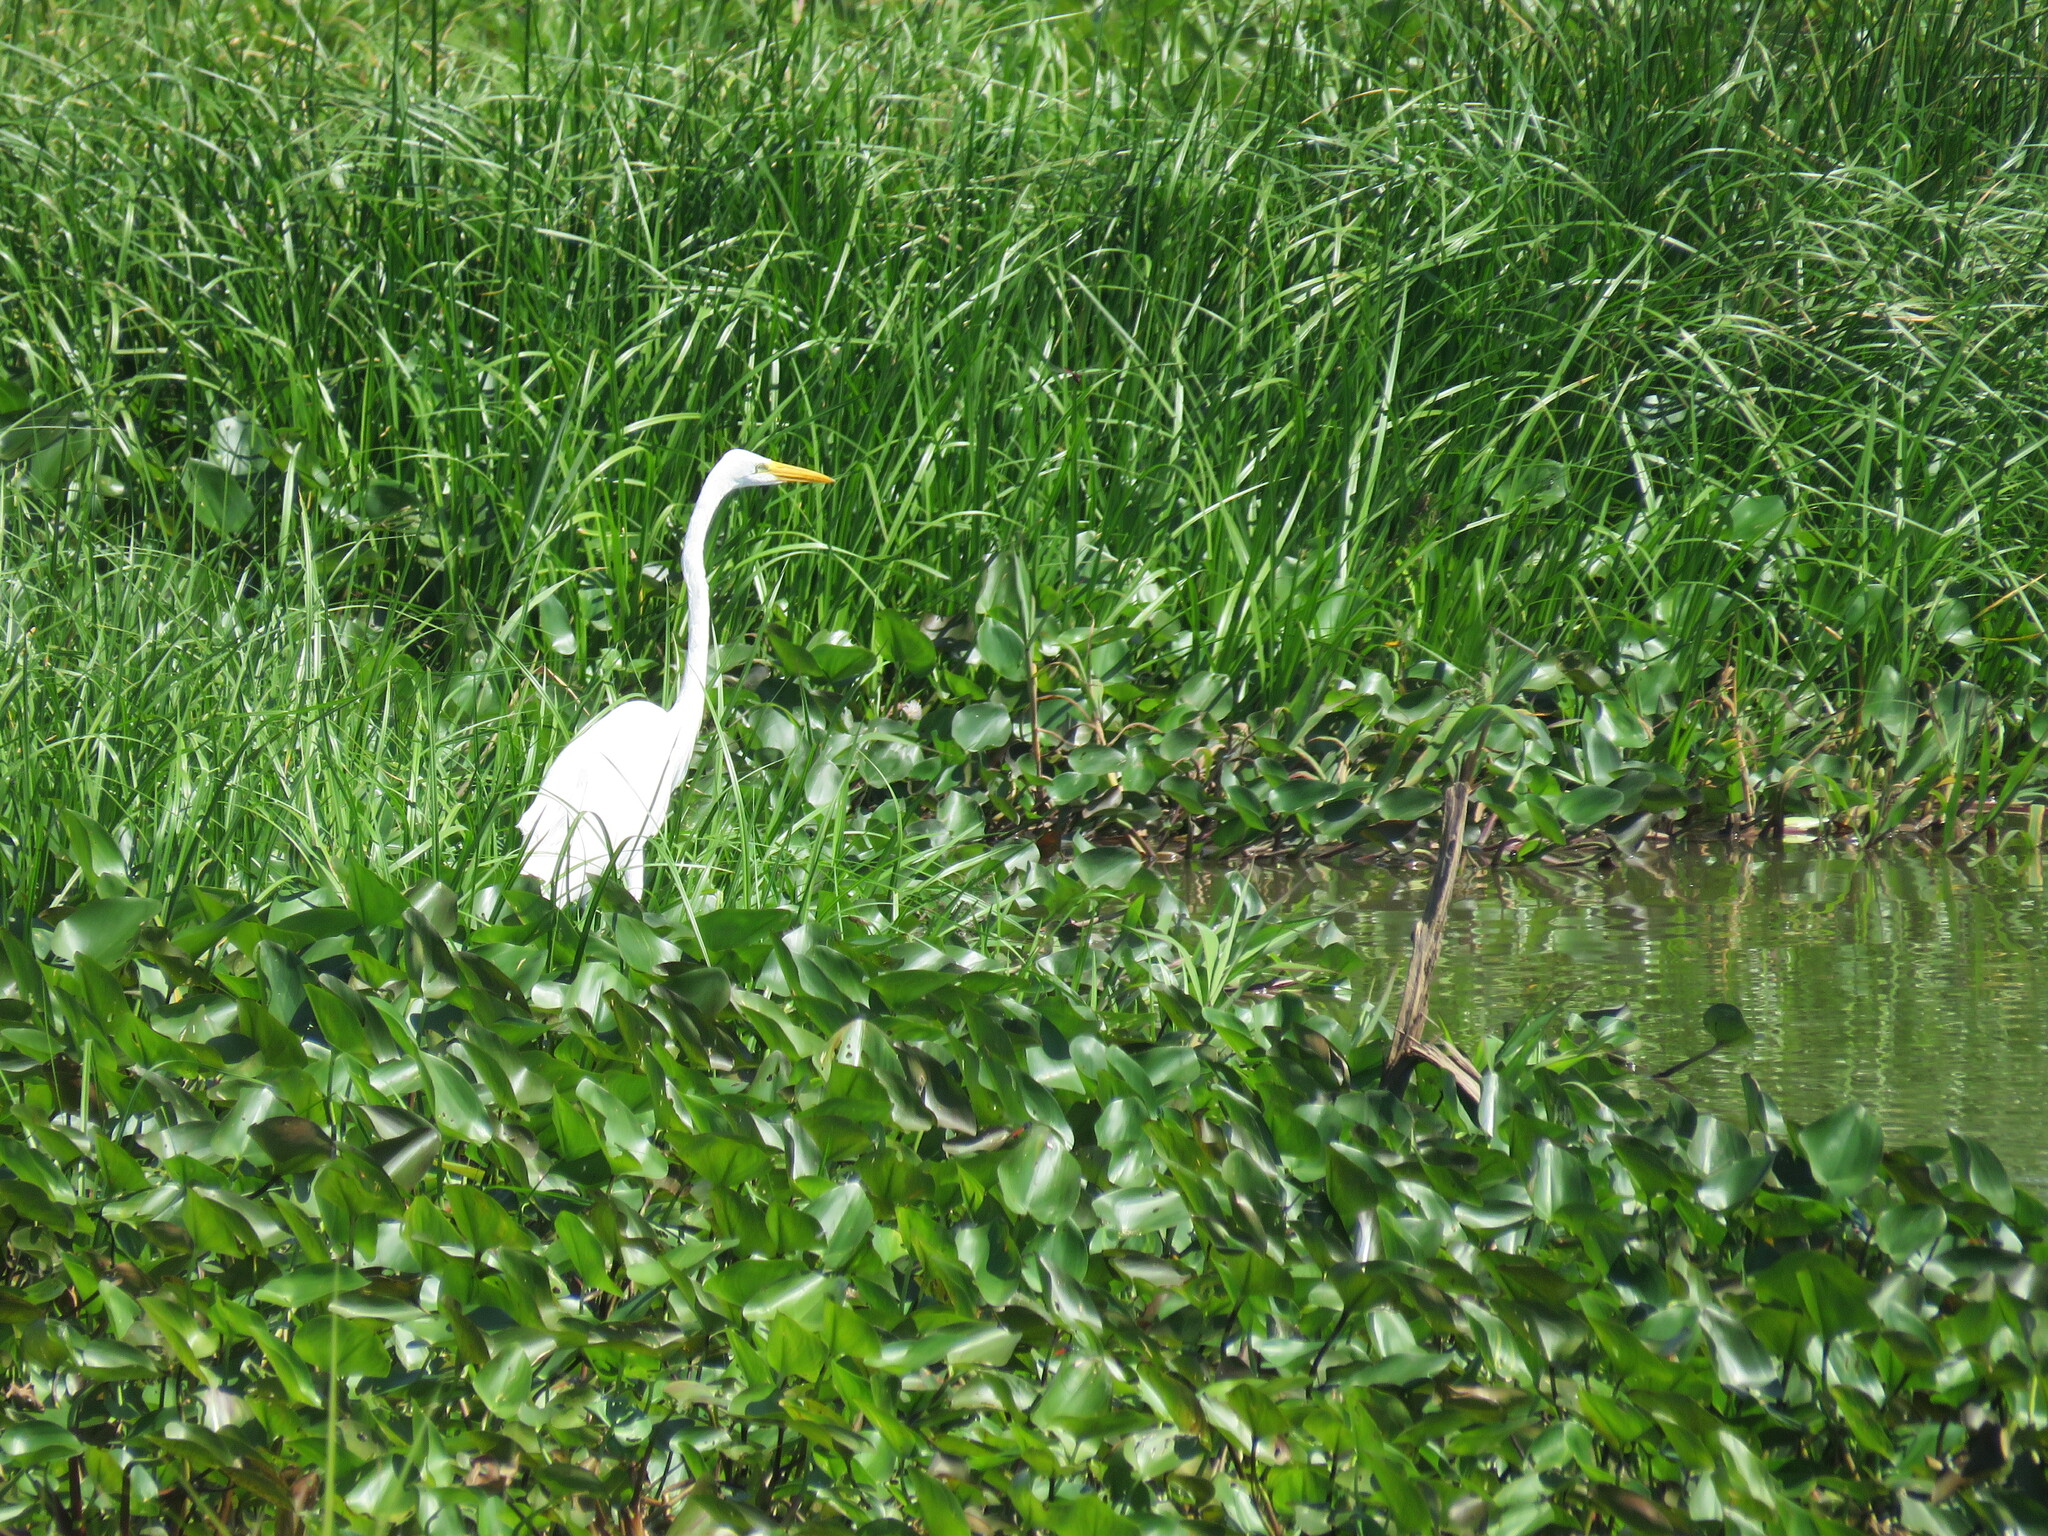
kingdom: Animalia
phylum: Chordata
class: Aves
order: Pelecaniformes
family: Ardeidae
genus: Ardea
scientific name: Ardea alba
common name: Great egret
